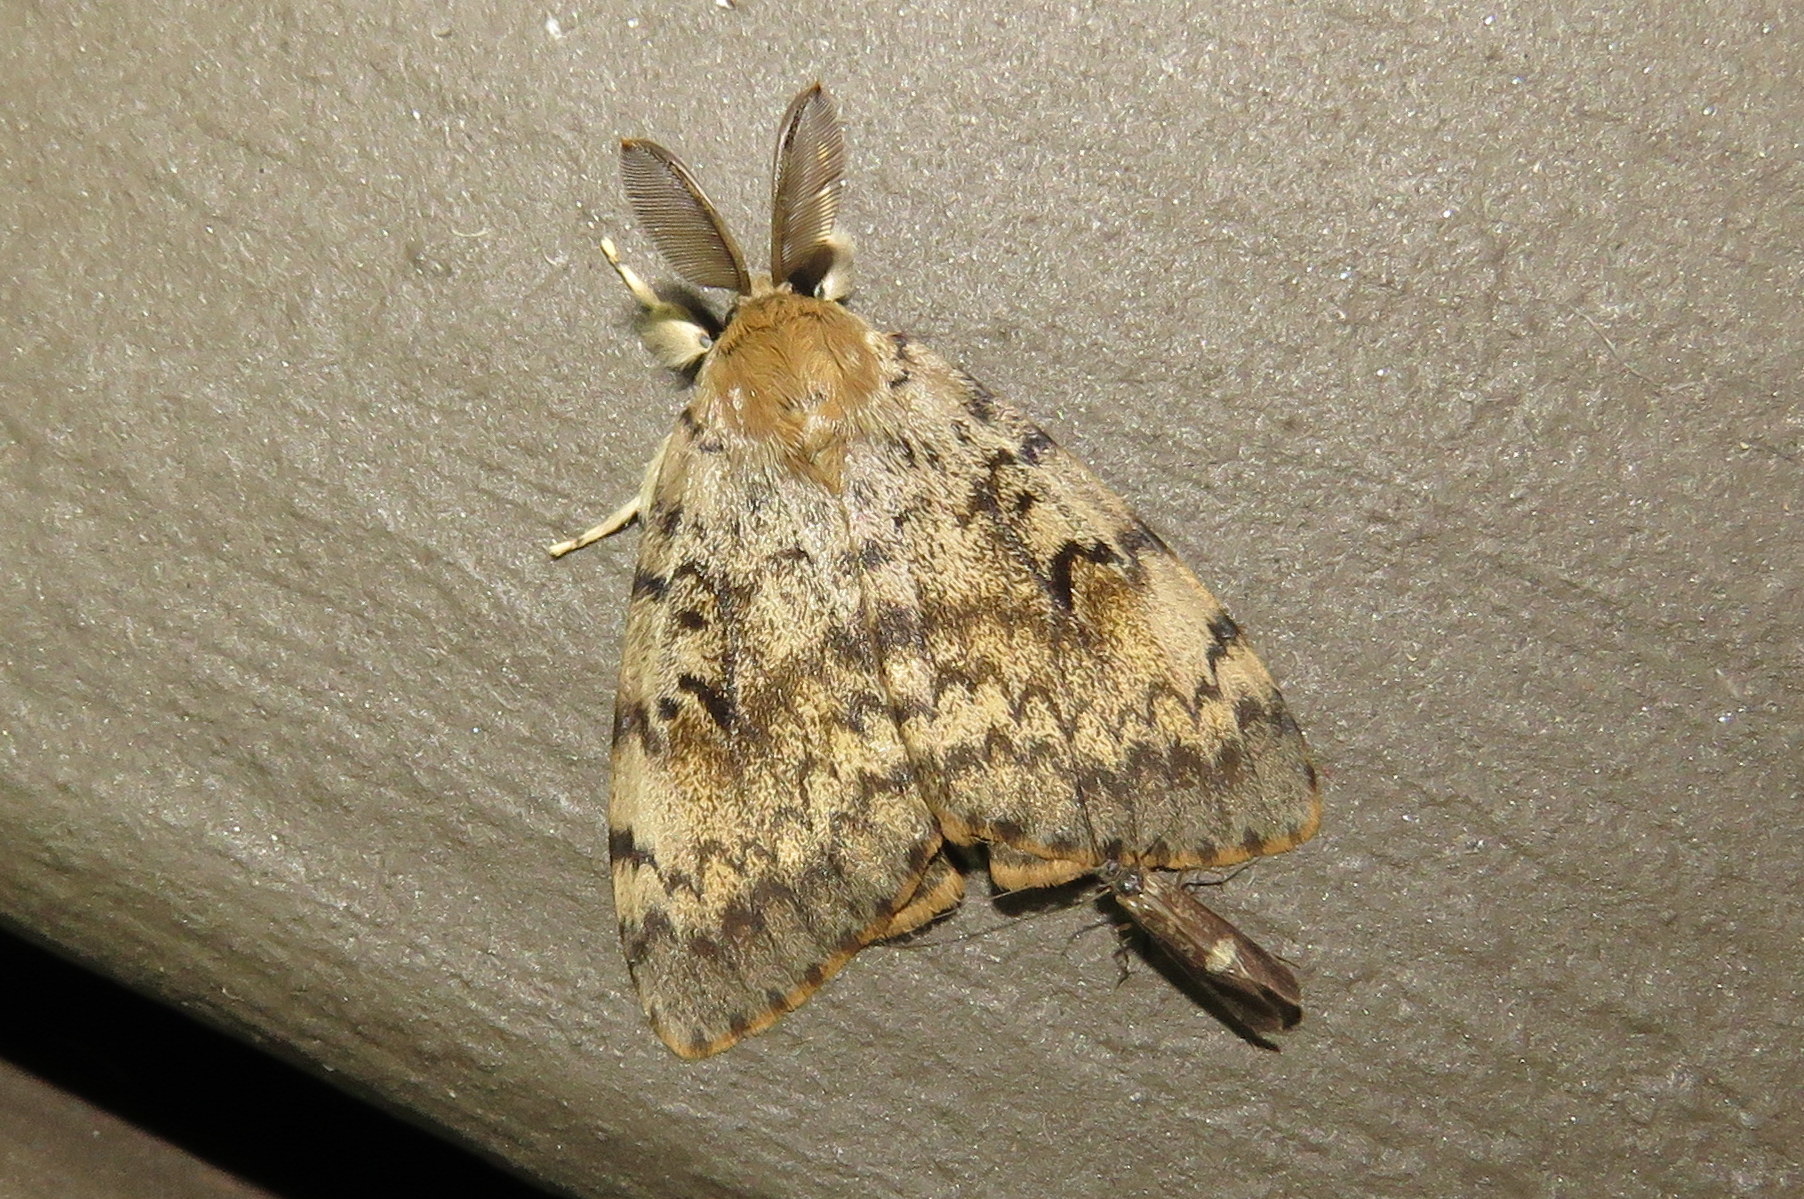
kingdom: Animalia
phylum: Arthropoda
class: Insecta
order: Lepidoptera
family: Erebidae
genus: Lymantria
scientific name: Lymantria dispar
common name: Gypsy moth
